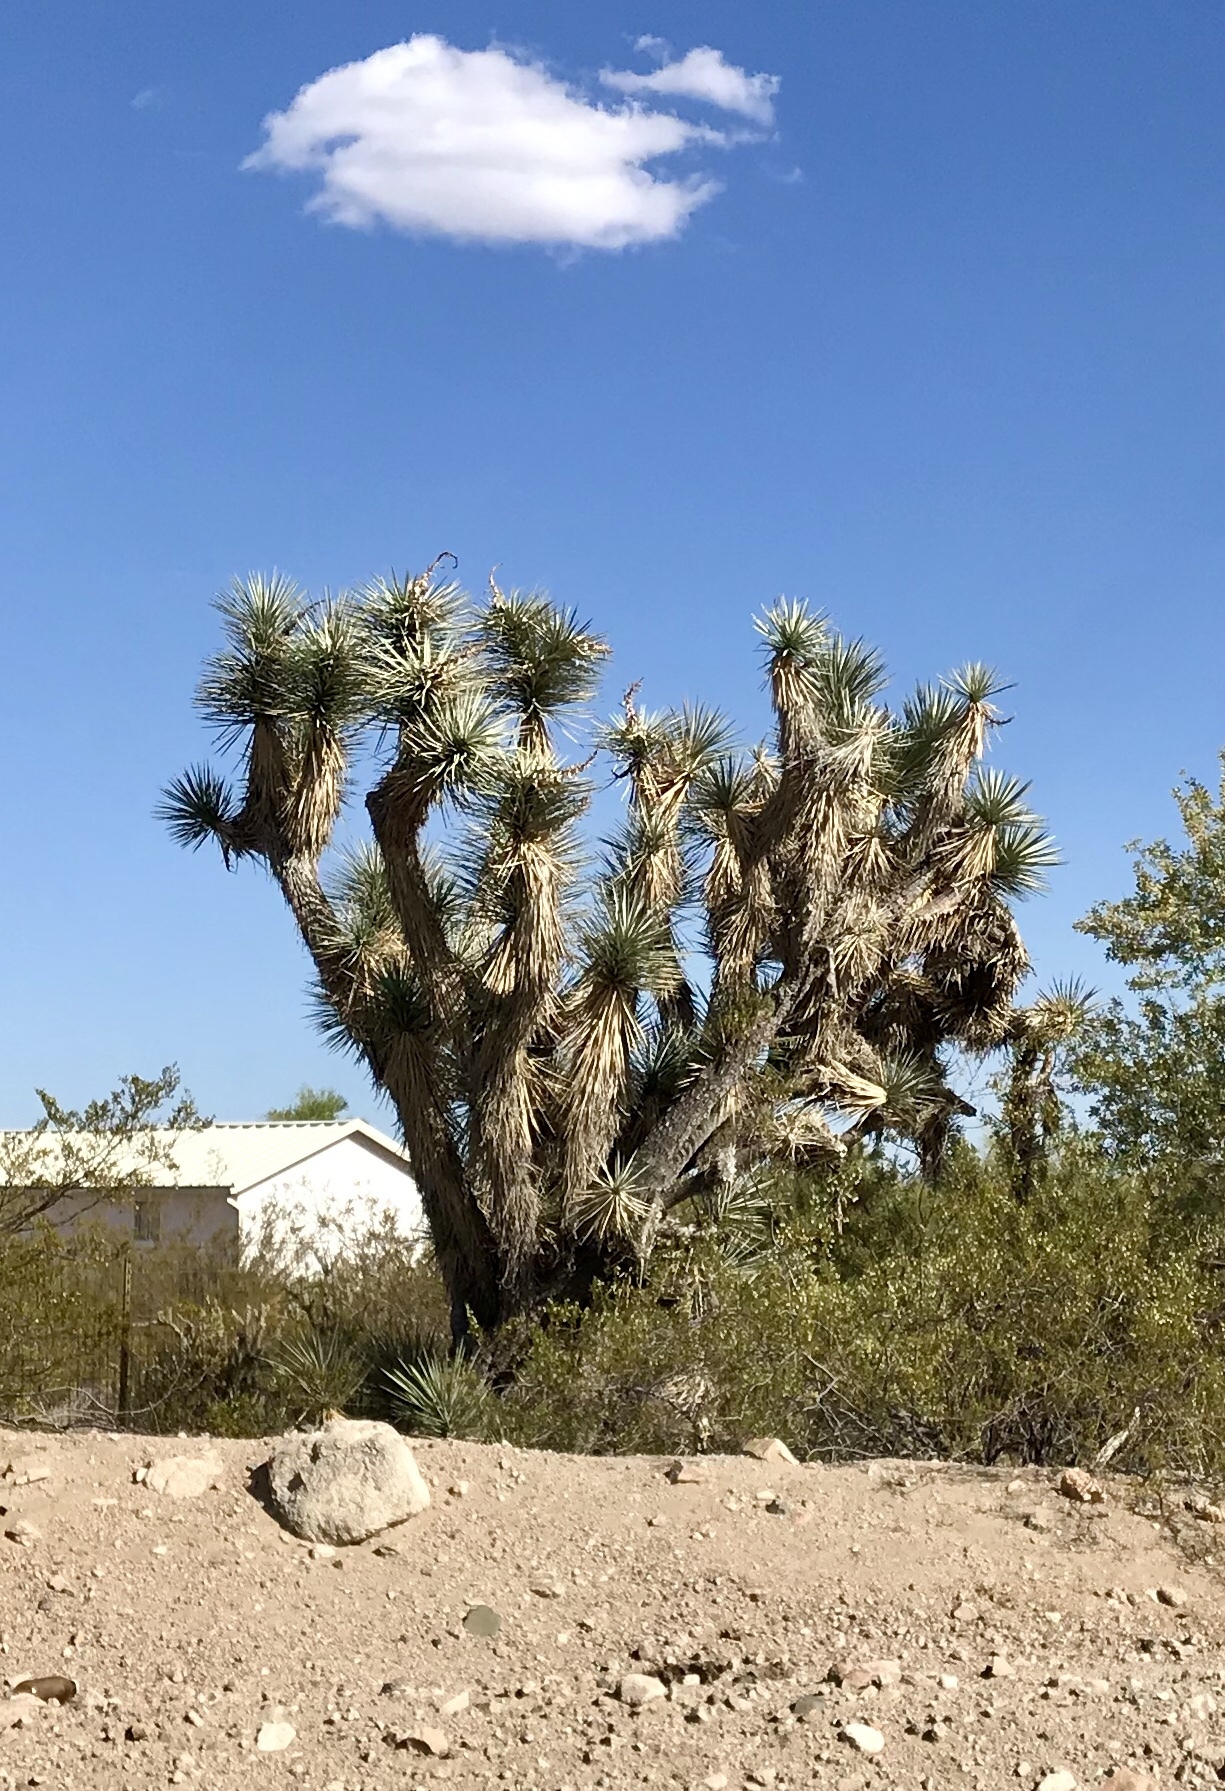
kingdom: Plantae
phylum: Tracheophyta
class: Liliopsida
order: Asparagales
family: Asparagaceae
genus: Yucca
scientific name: Yucca brevifolia
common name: Joshua tree
